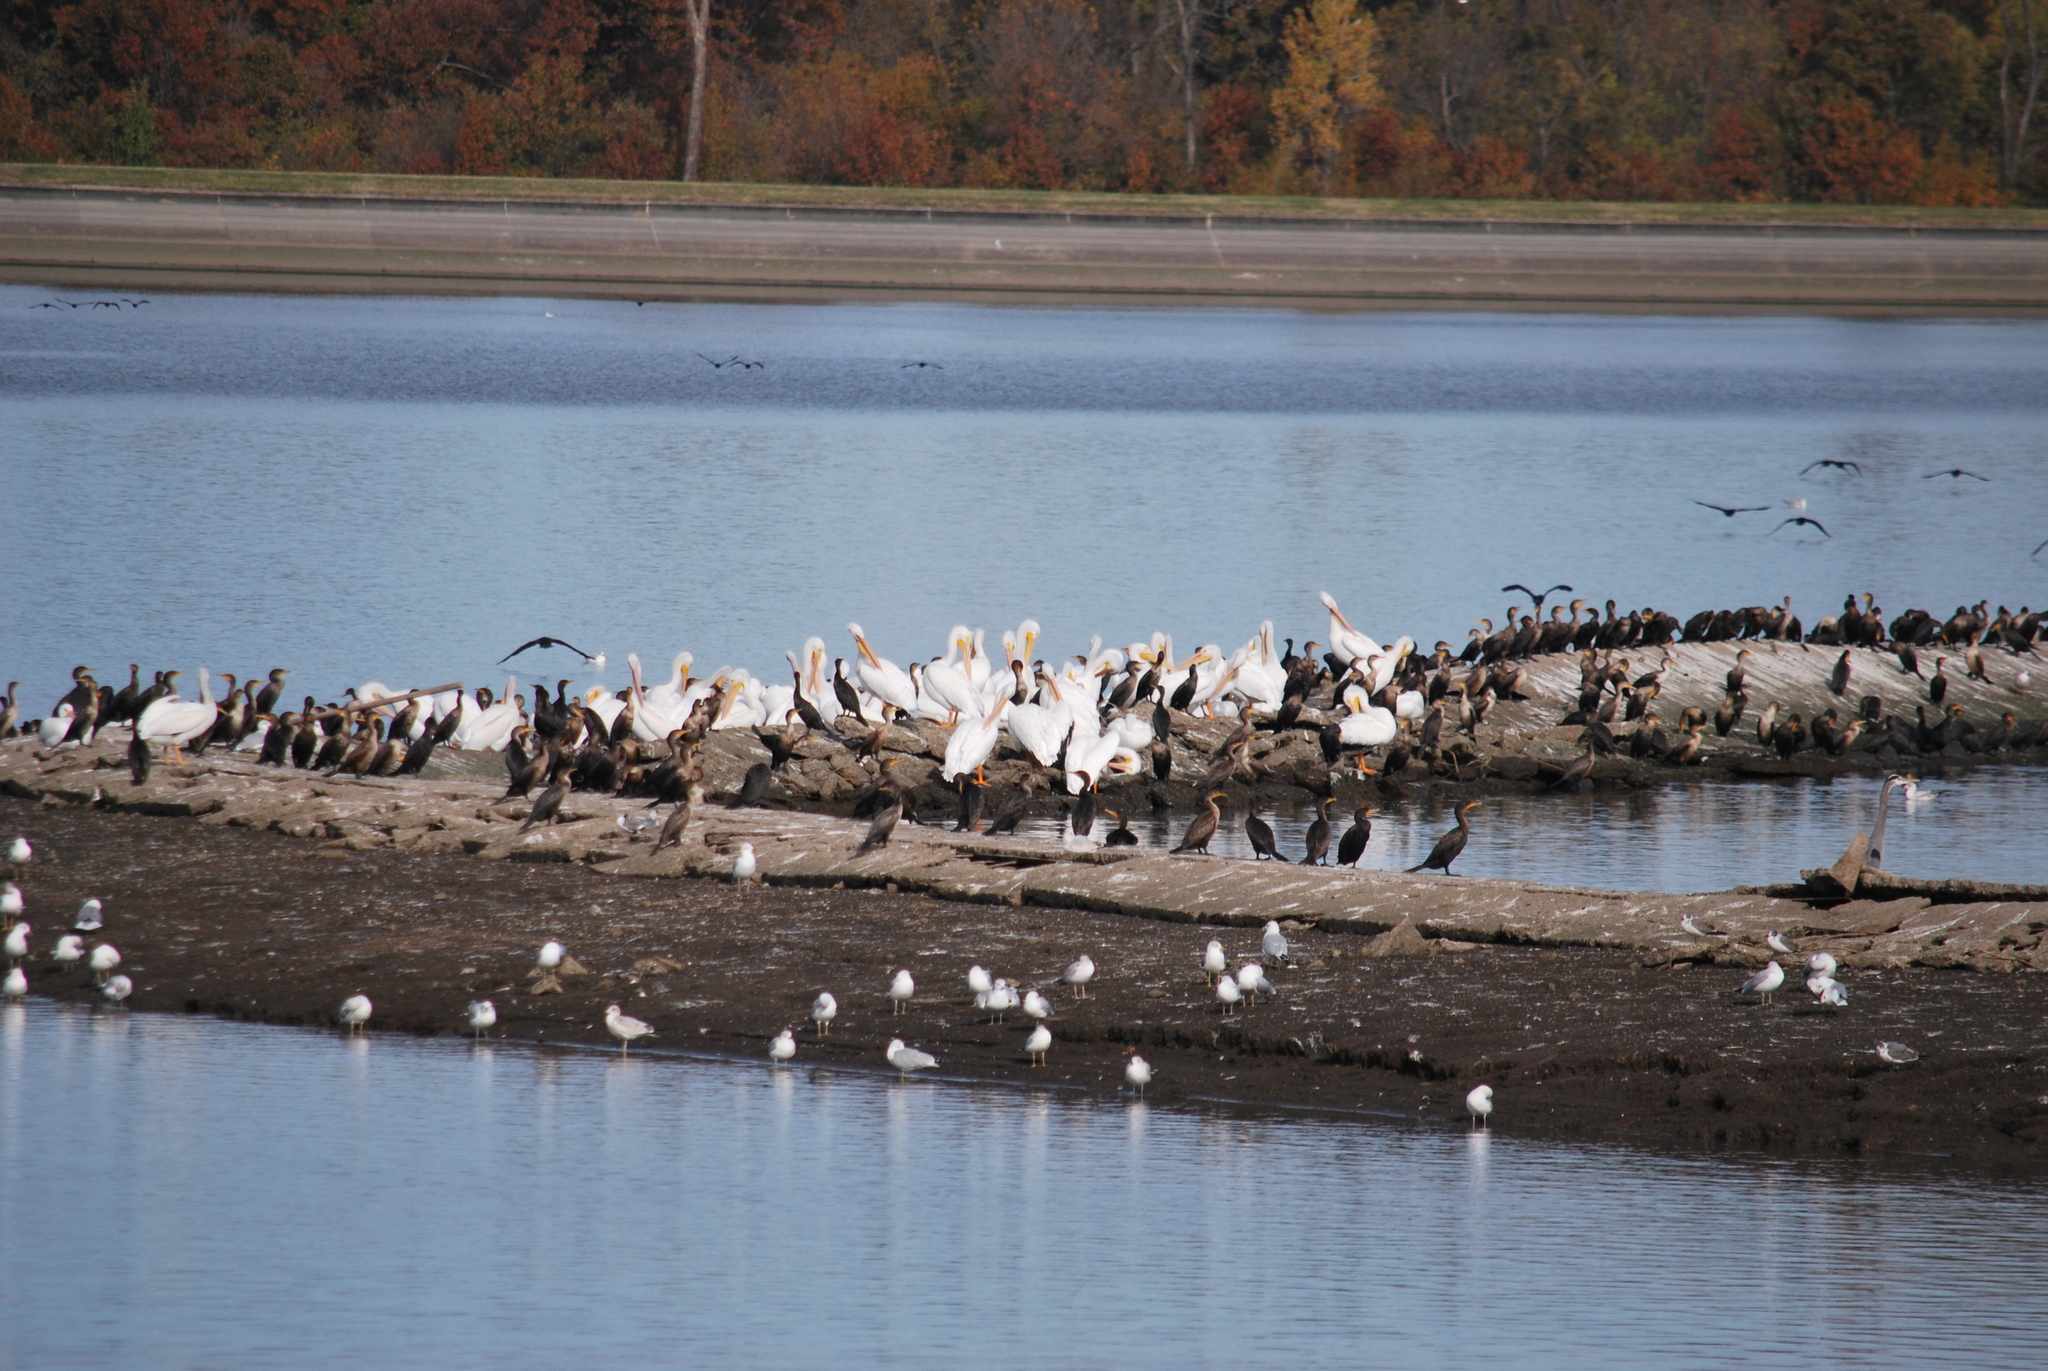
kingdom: Animalia
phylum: Chordata
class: Aves
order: Pelecaniformes
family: Pelecanidae
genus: Pelecanus
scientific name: Pelecanus erythrorhynchos
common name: American white pelican
